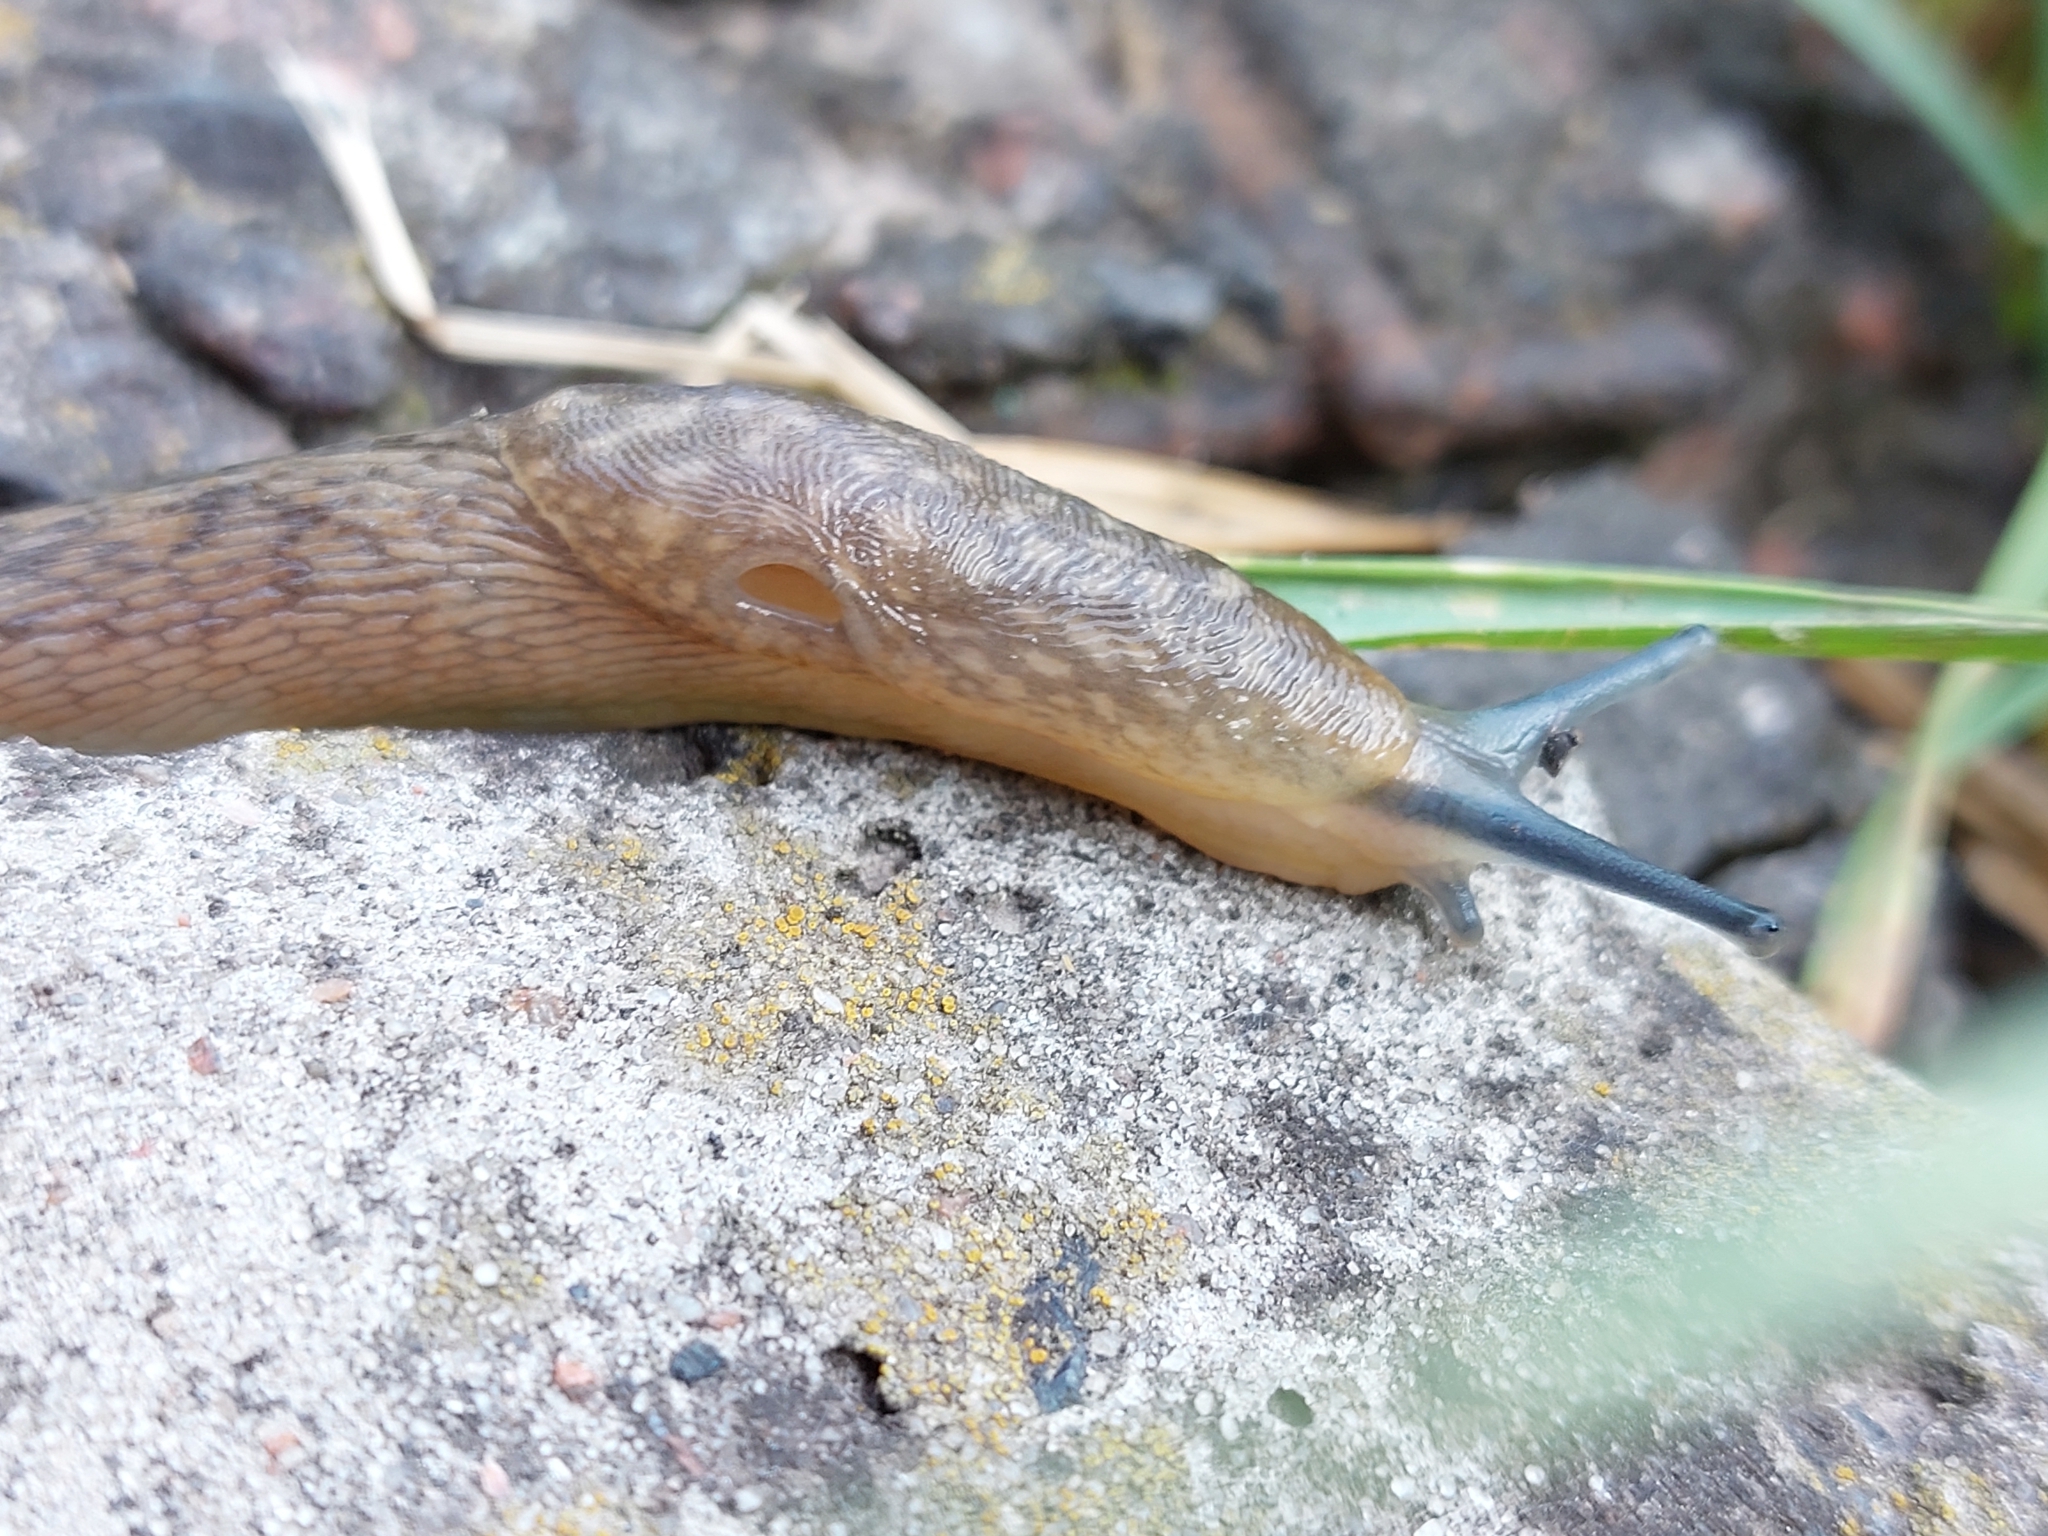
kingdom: Animalia
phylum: Mollusca
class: Gastropoda
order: Stylommatophora
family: Limacidae
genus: Limacus
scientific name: Limacus
